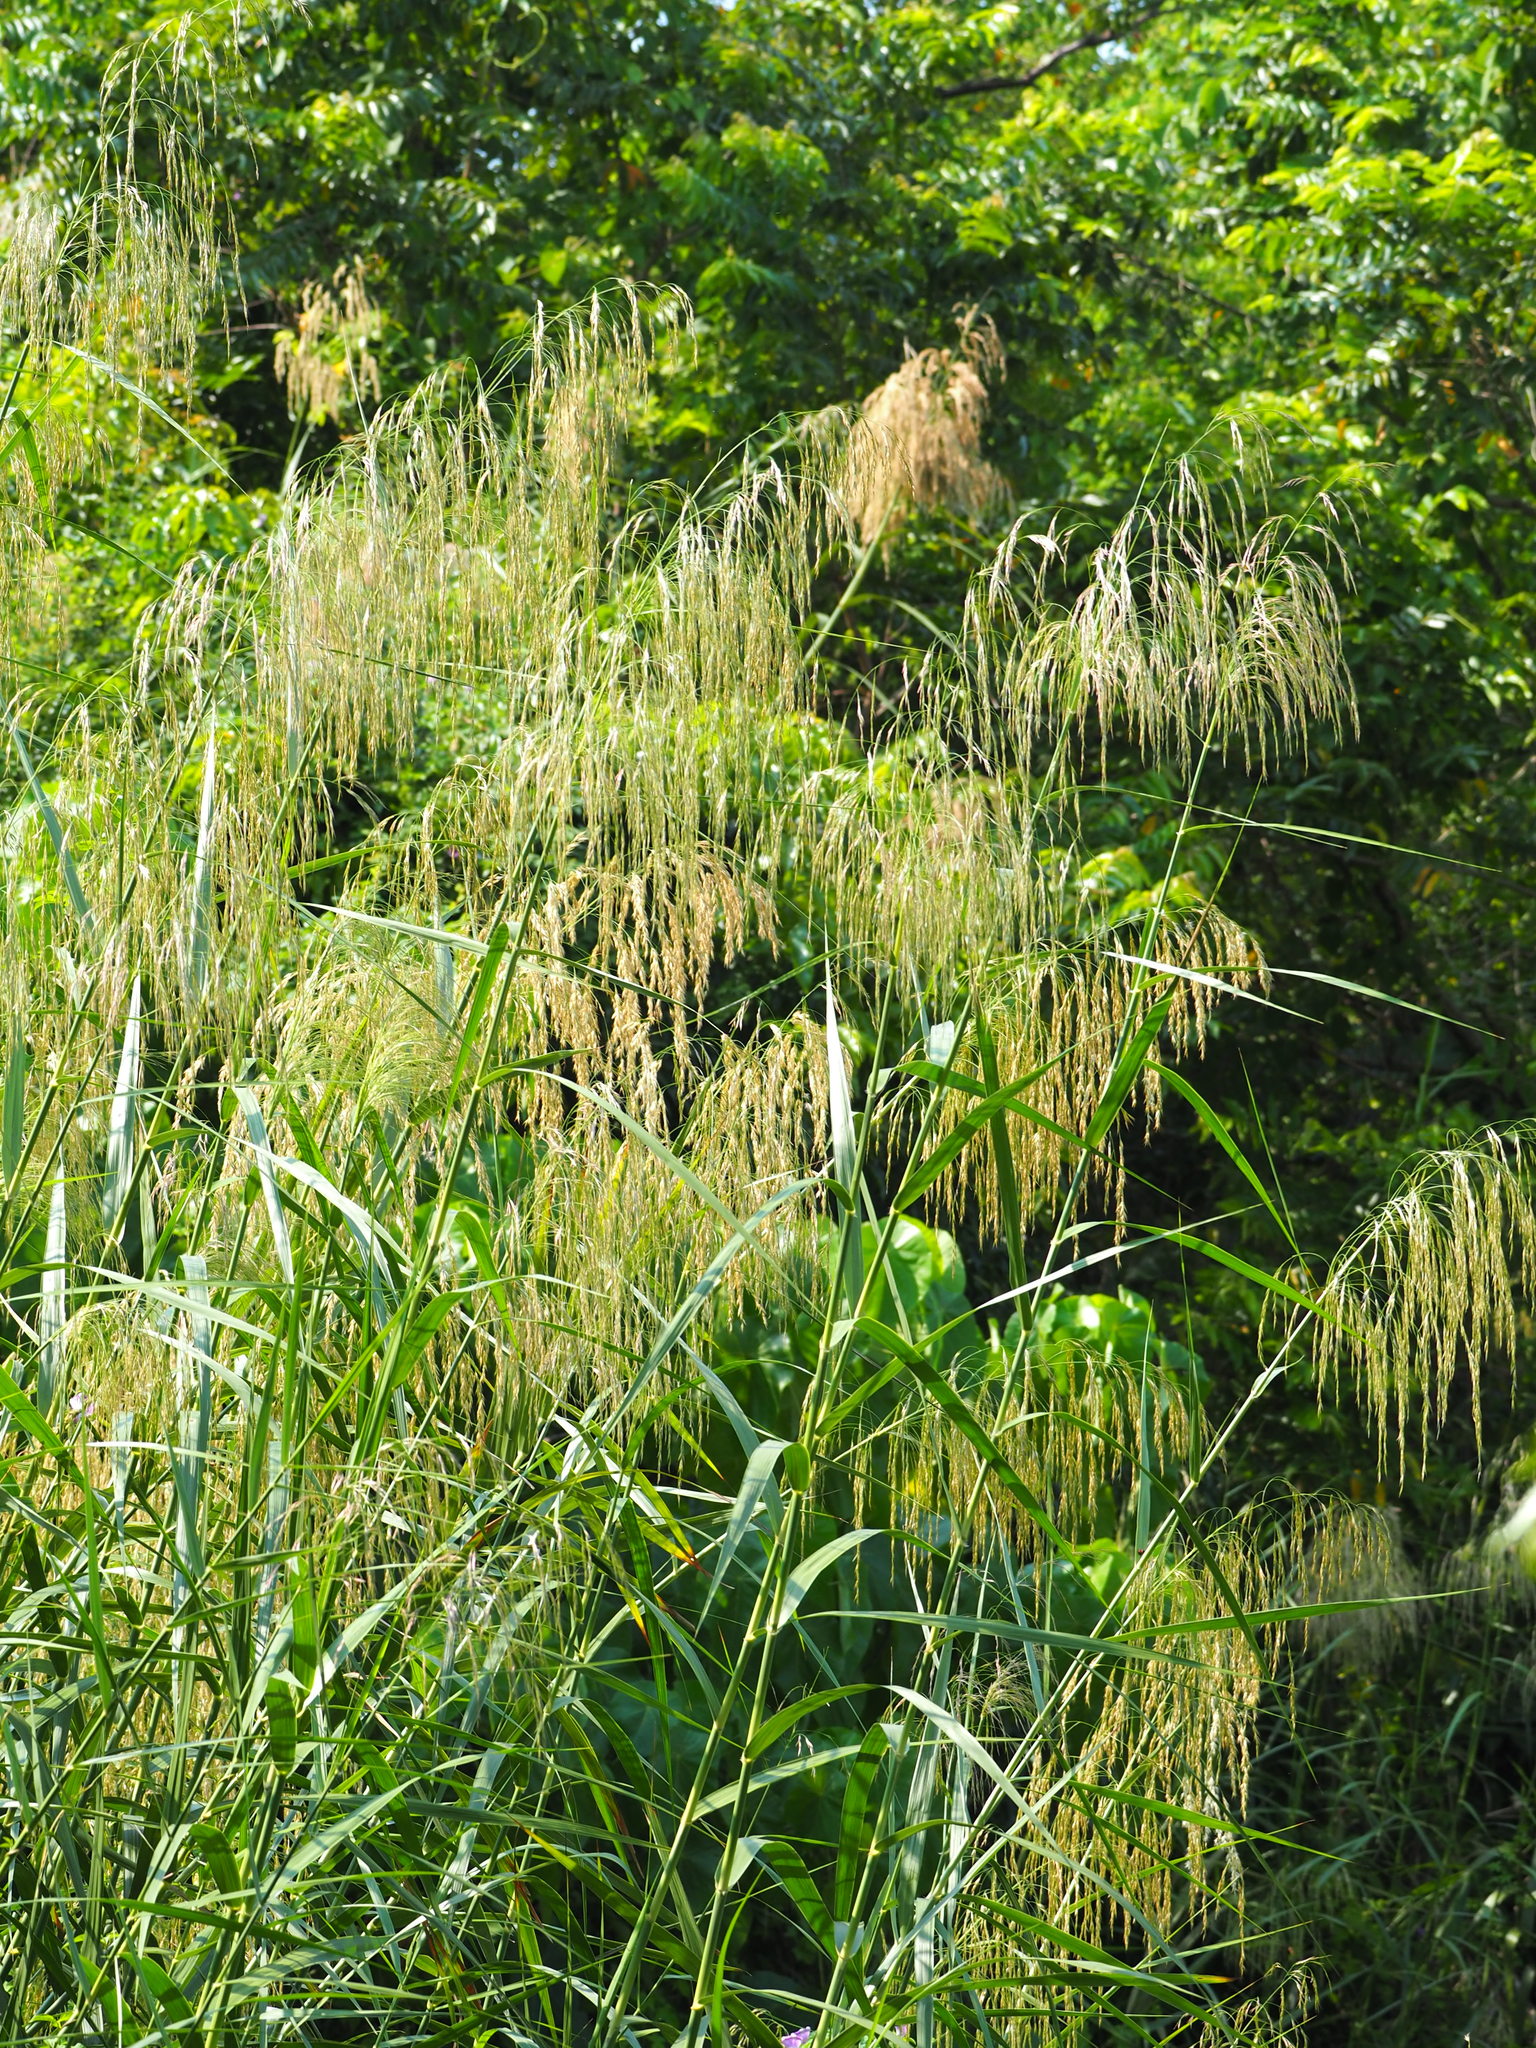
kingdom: Plantae
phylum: Tracheophyta
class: Liliopsida
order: Poales
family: Poaceae
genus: Phragmites
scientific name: Phragmites karka
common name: Tropical reed
